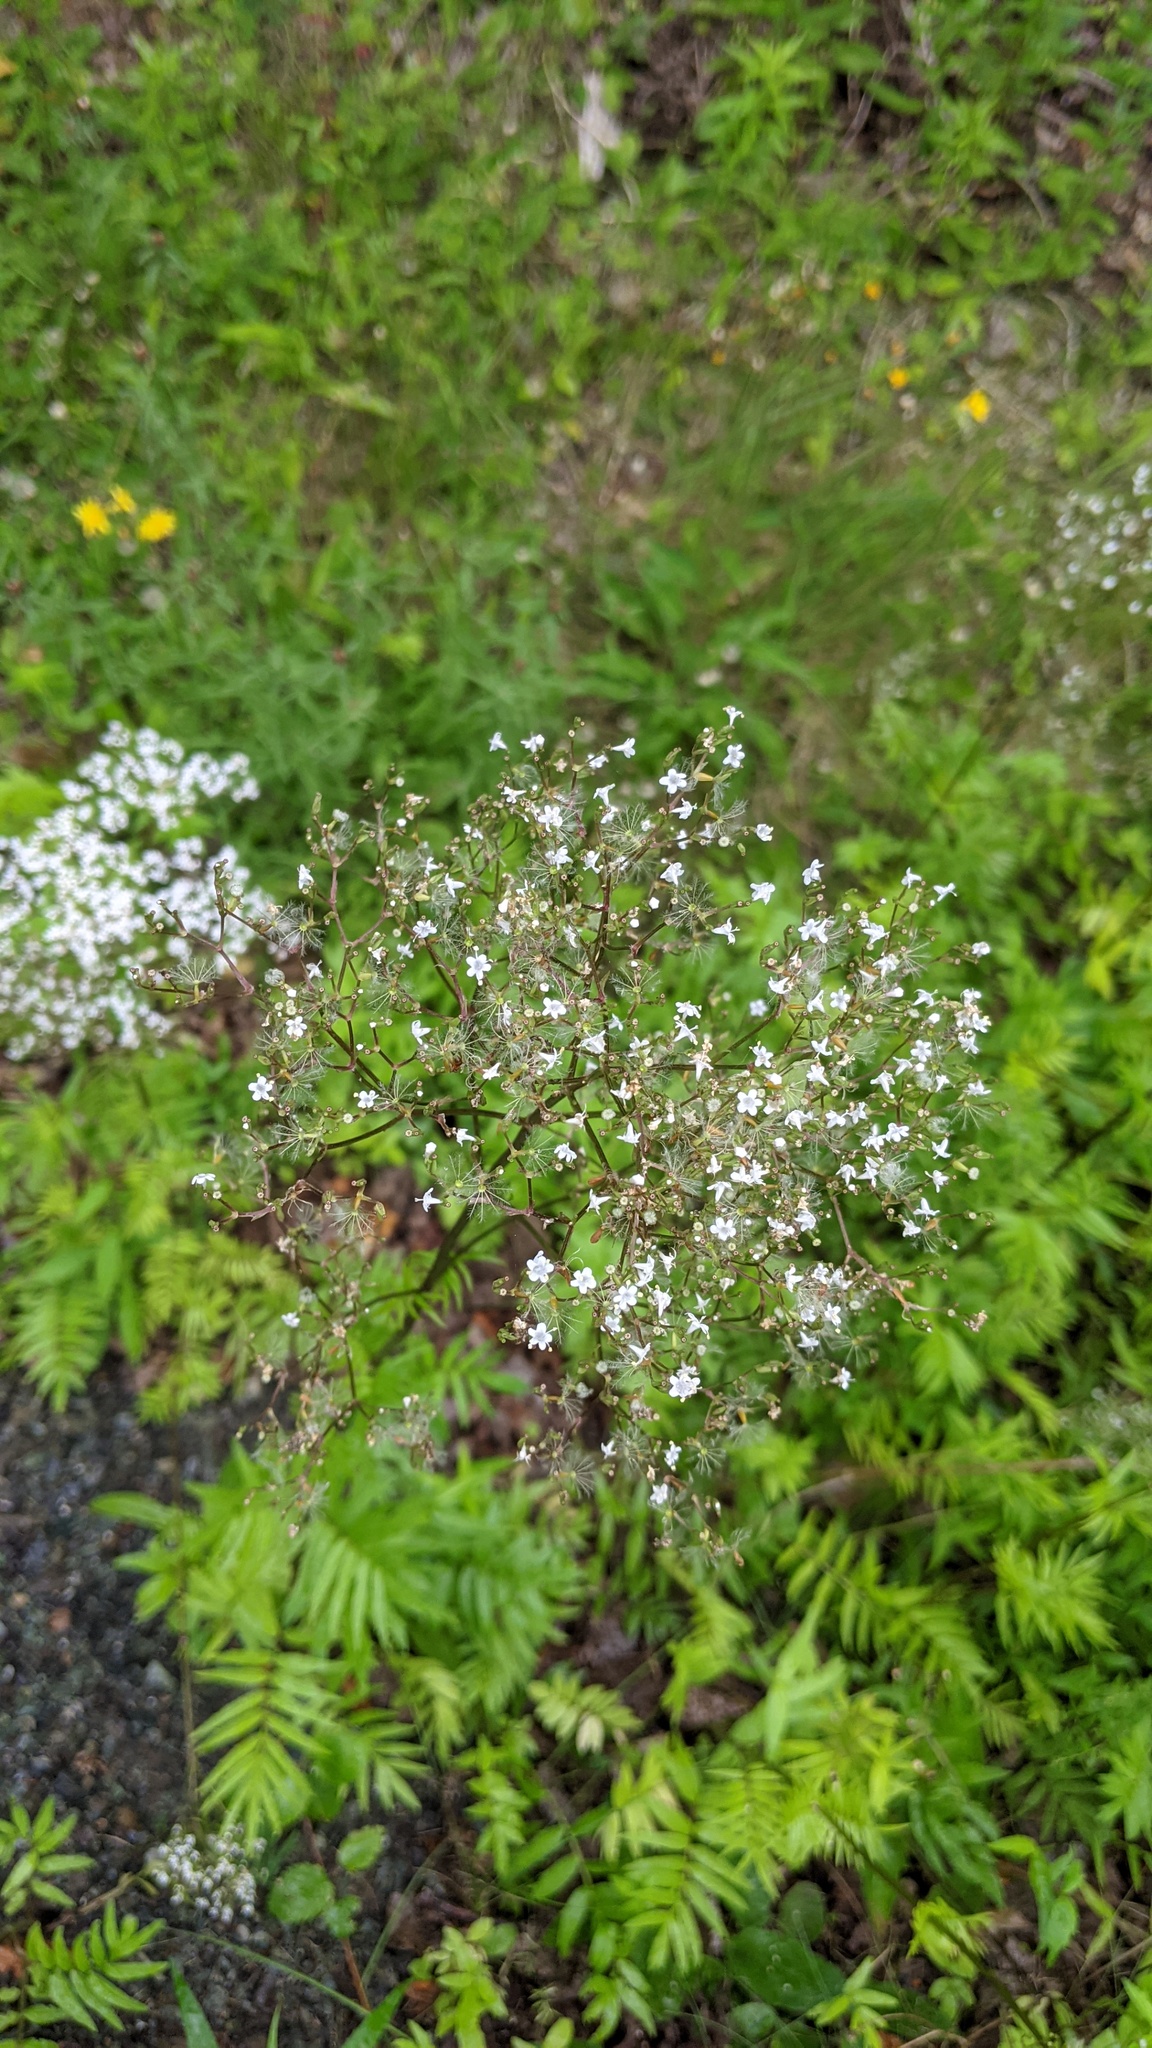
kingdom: Plantae
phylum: Tracheophyta
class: Magnoliopsida
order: Dipsacales
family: Caprifoliaceae
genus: Valeriana
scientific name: Valeriana officinalis
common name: Common valerian
